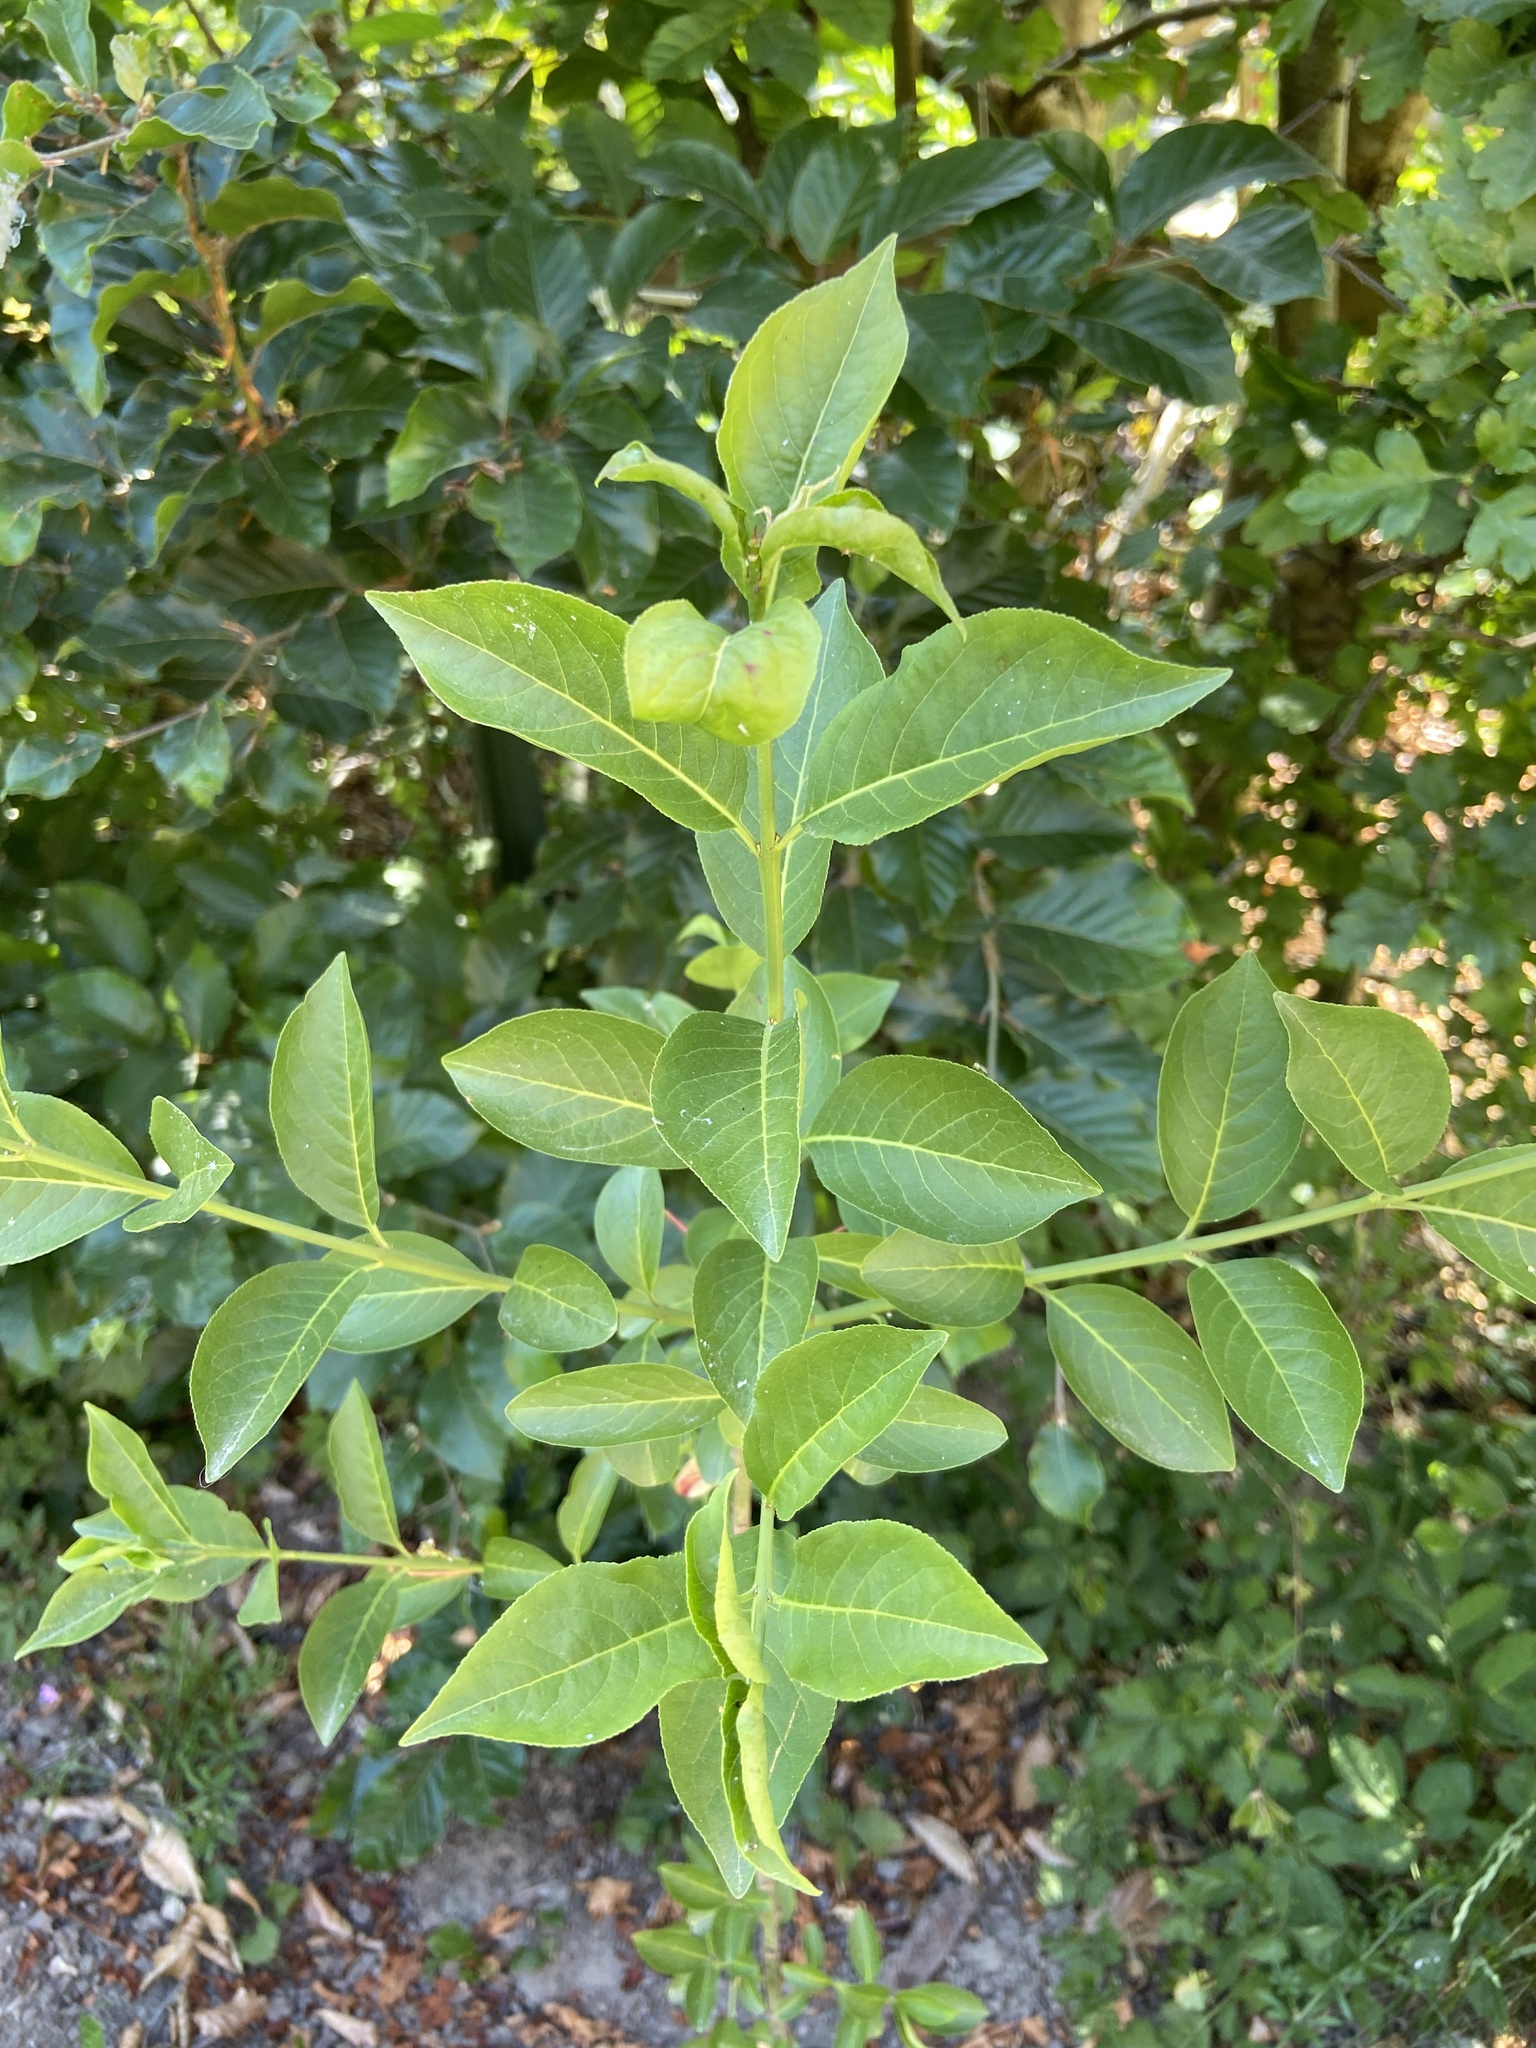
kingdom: Plantae
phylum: Tracheophyta
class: Magnoliopsida
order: Celastrales
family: Celastraceae
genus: Euonymus
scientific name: Euonymus europaeus
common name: Spindle
